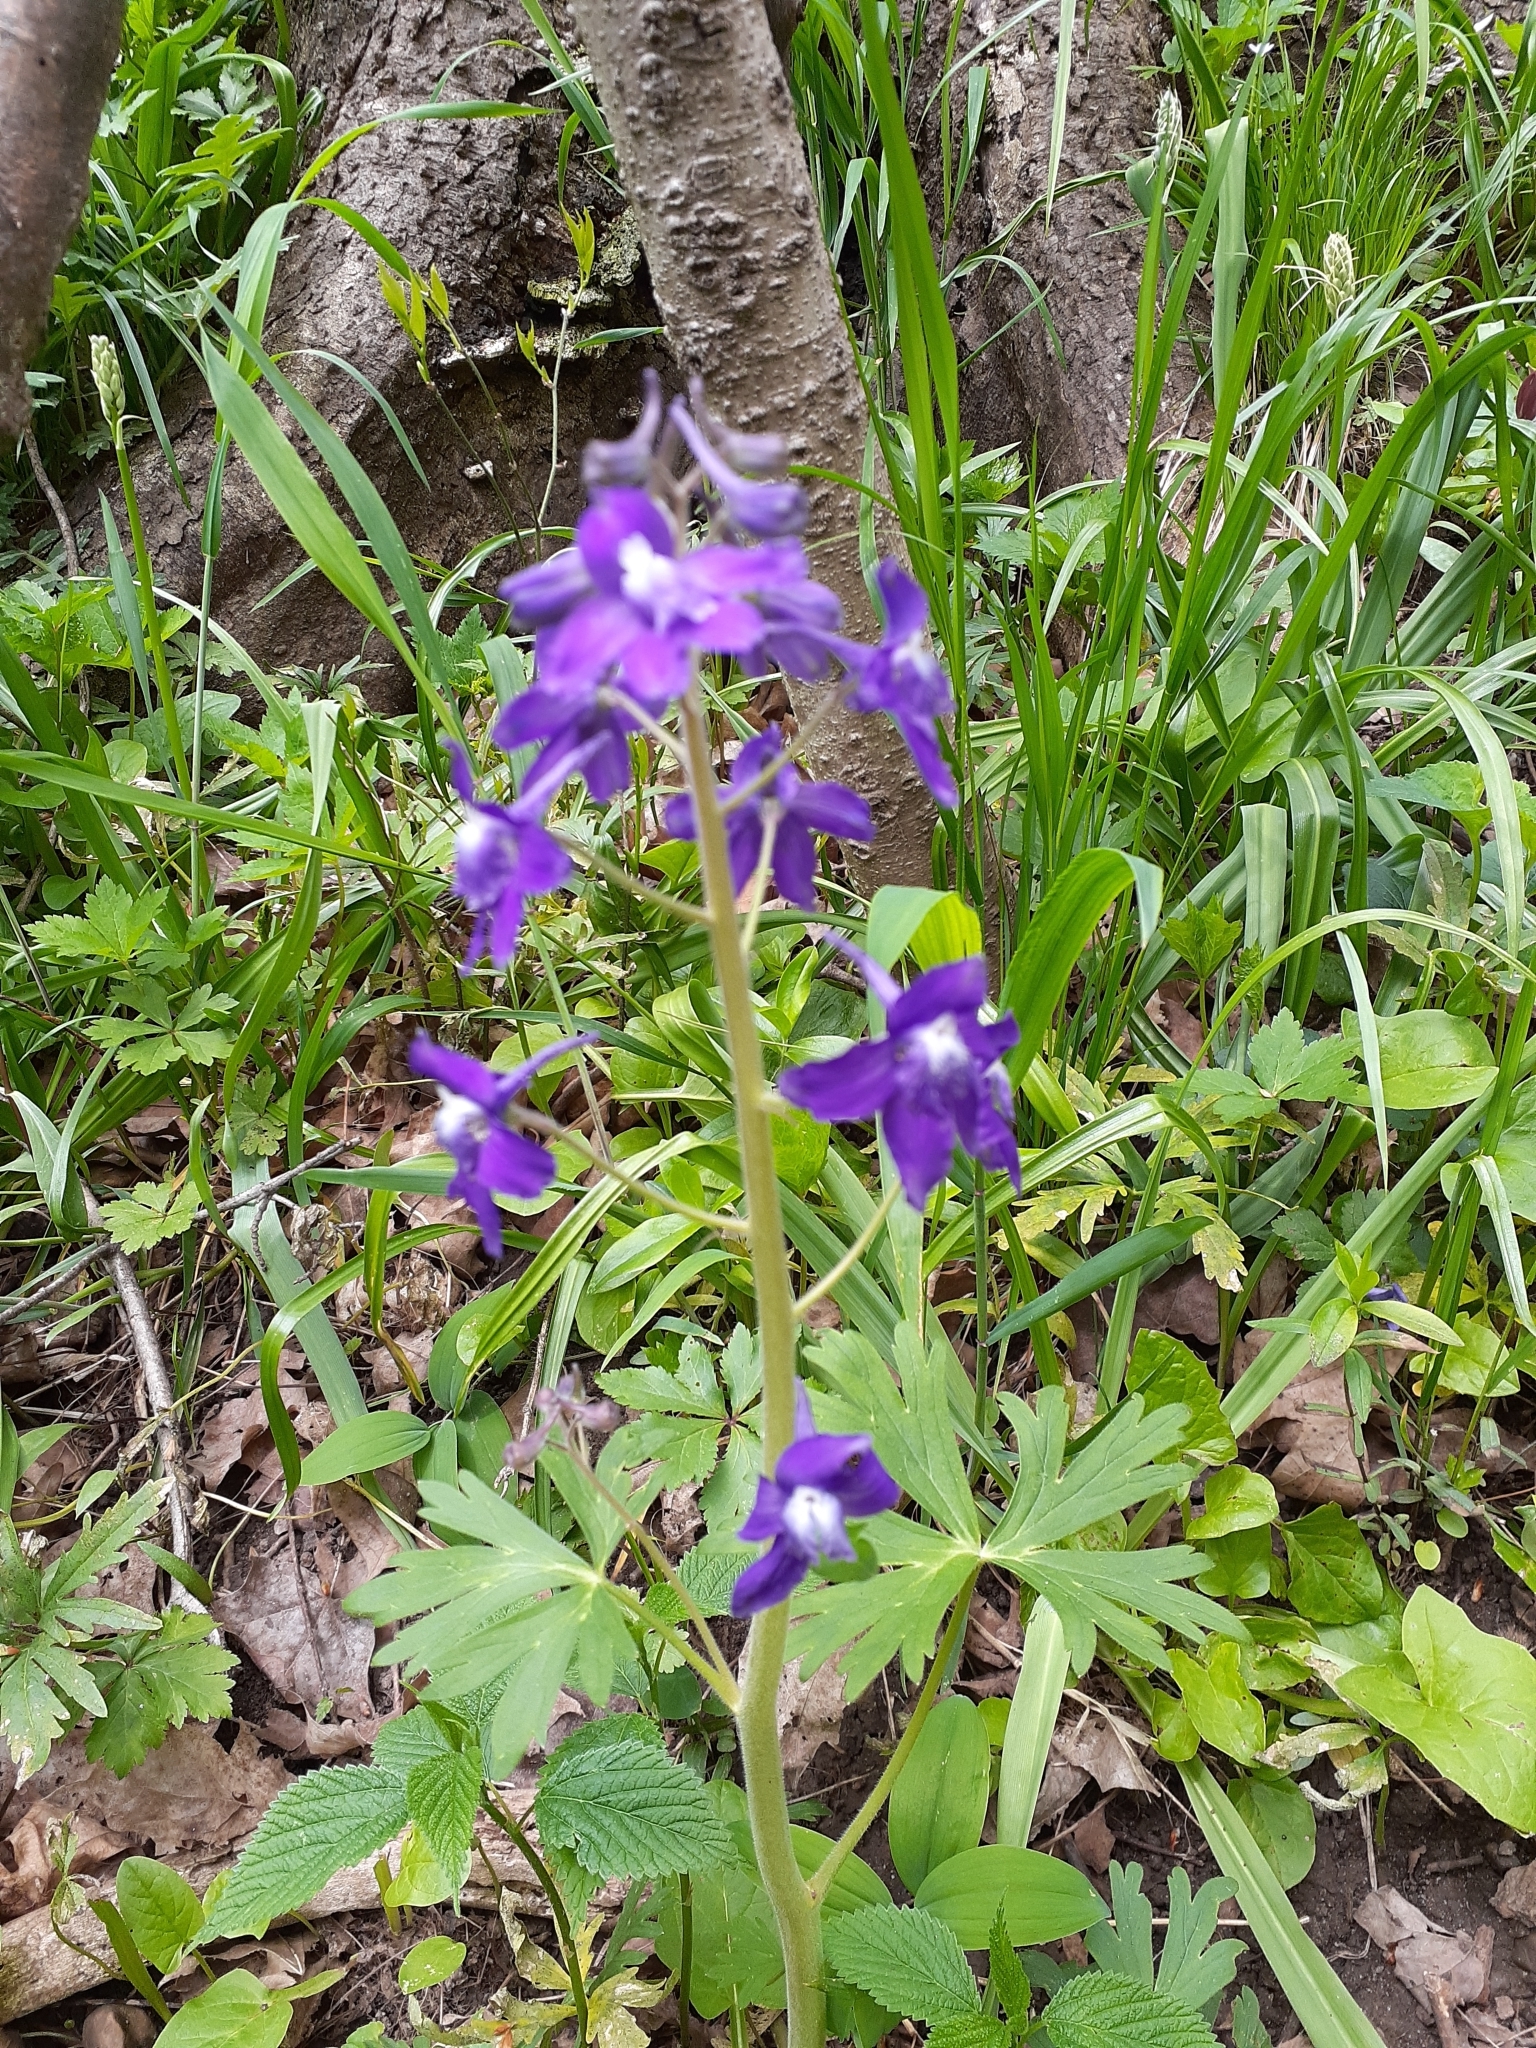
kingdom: Plantae
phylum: Tracheophyta
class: Magnoliopsida
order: Ranunculales
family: Ranunculaceae
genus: Delphinium
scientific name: Delphinium tricorne
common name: Dwarf larkspur
